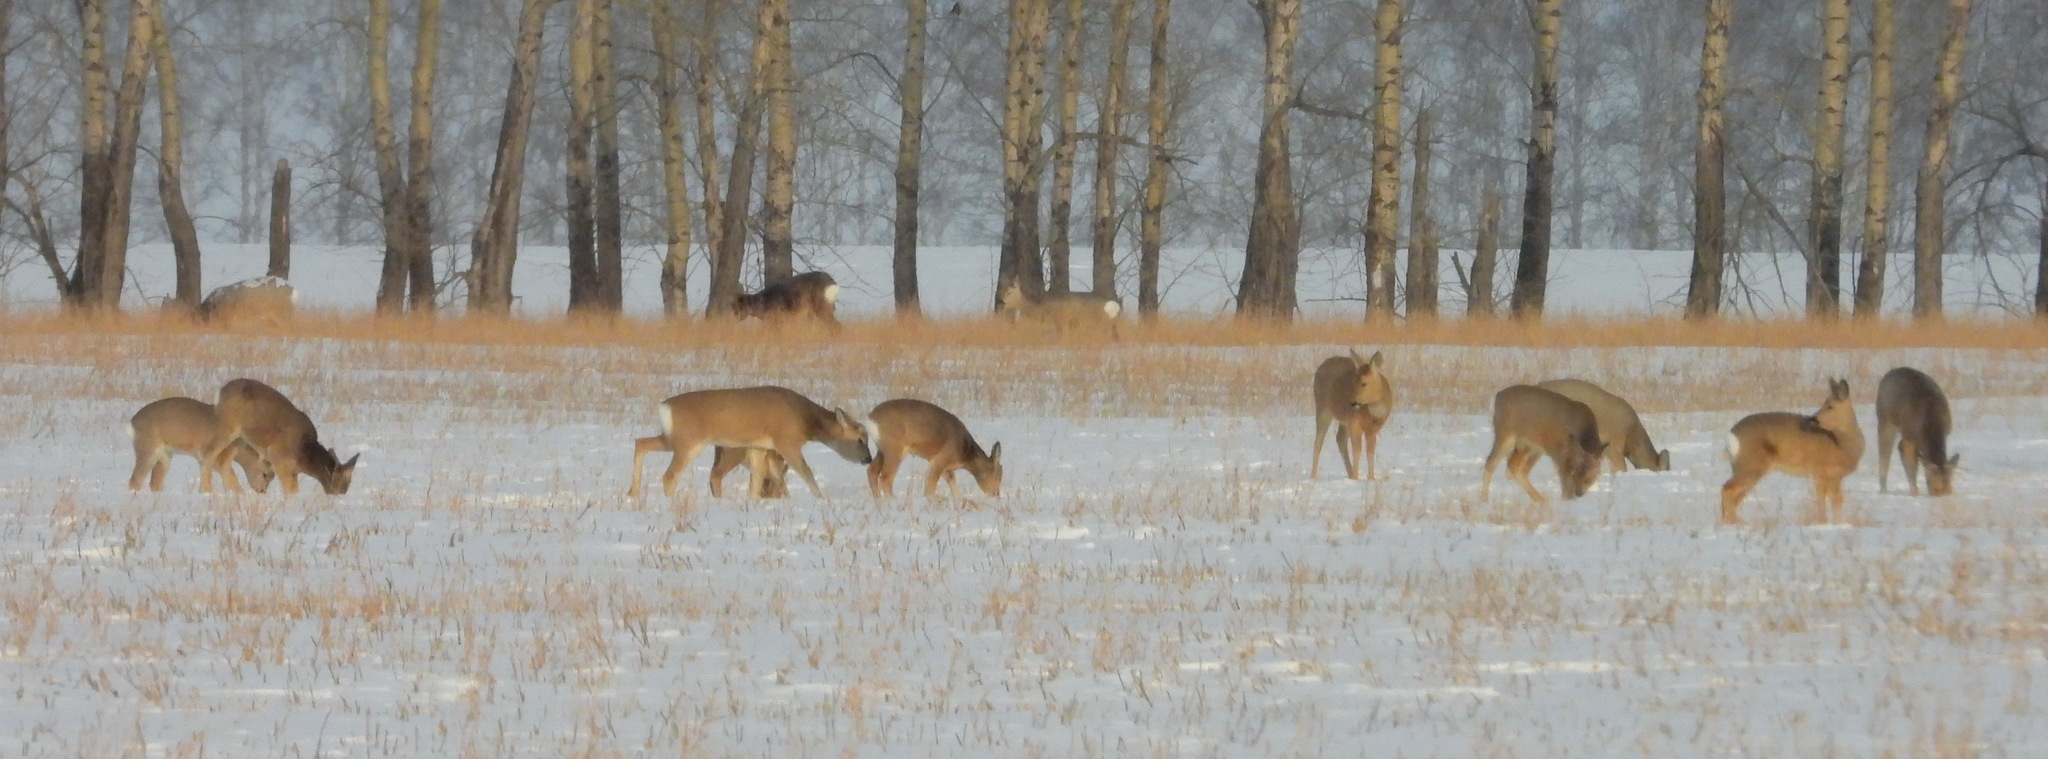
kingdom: Animalia
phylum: Chordata
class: Mammalia
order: Artiodactyla
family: Cervidae
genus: Capreolus
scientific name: Capreolus pygargus
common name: Siberian roe
